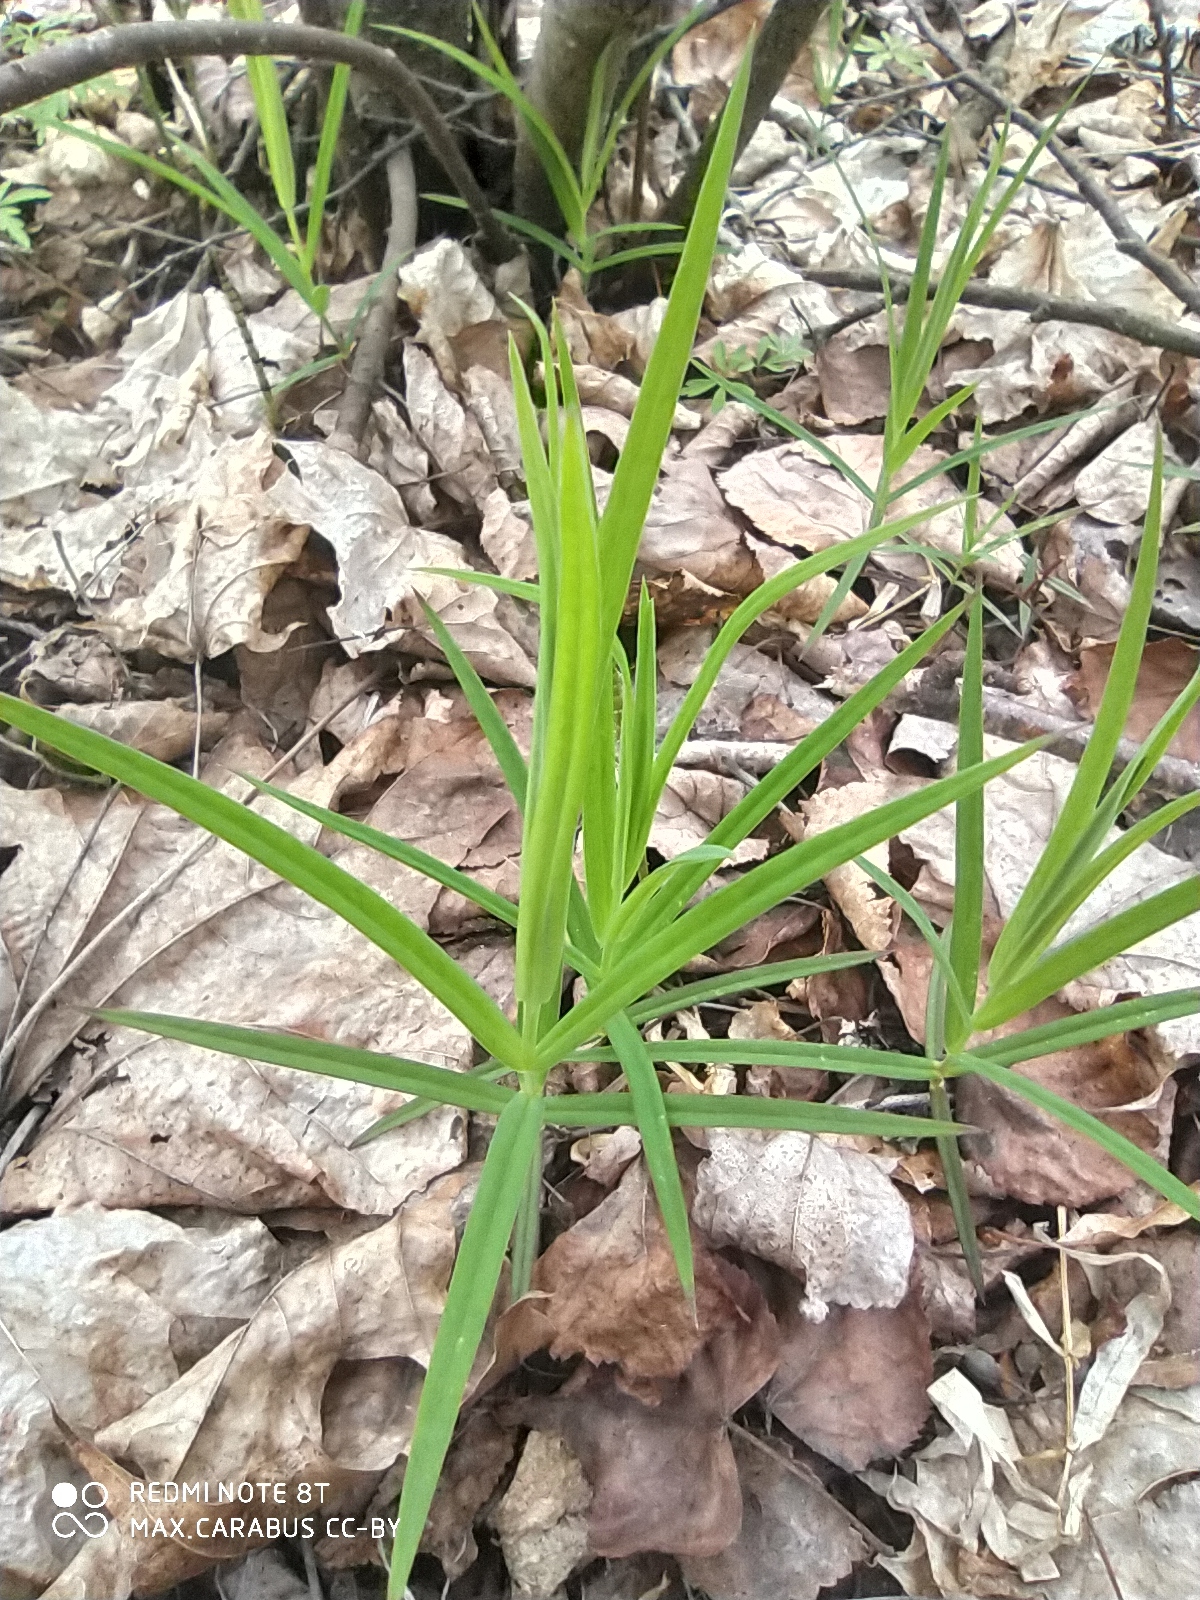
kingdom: Plantae
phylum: Tracheophyta
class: Magnoliopsida
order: Caryophyllales
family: Caryophyllaceae
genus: Rabelera
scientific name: Rabelera holostea
